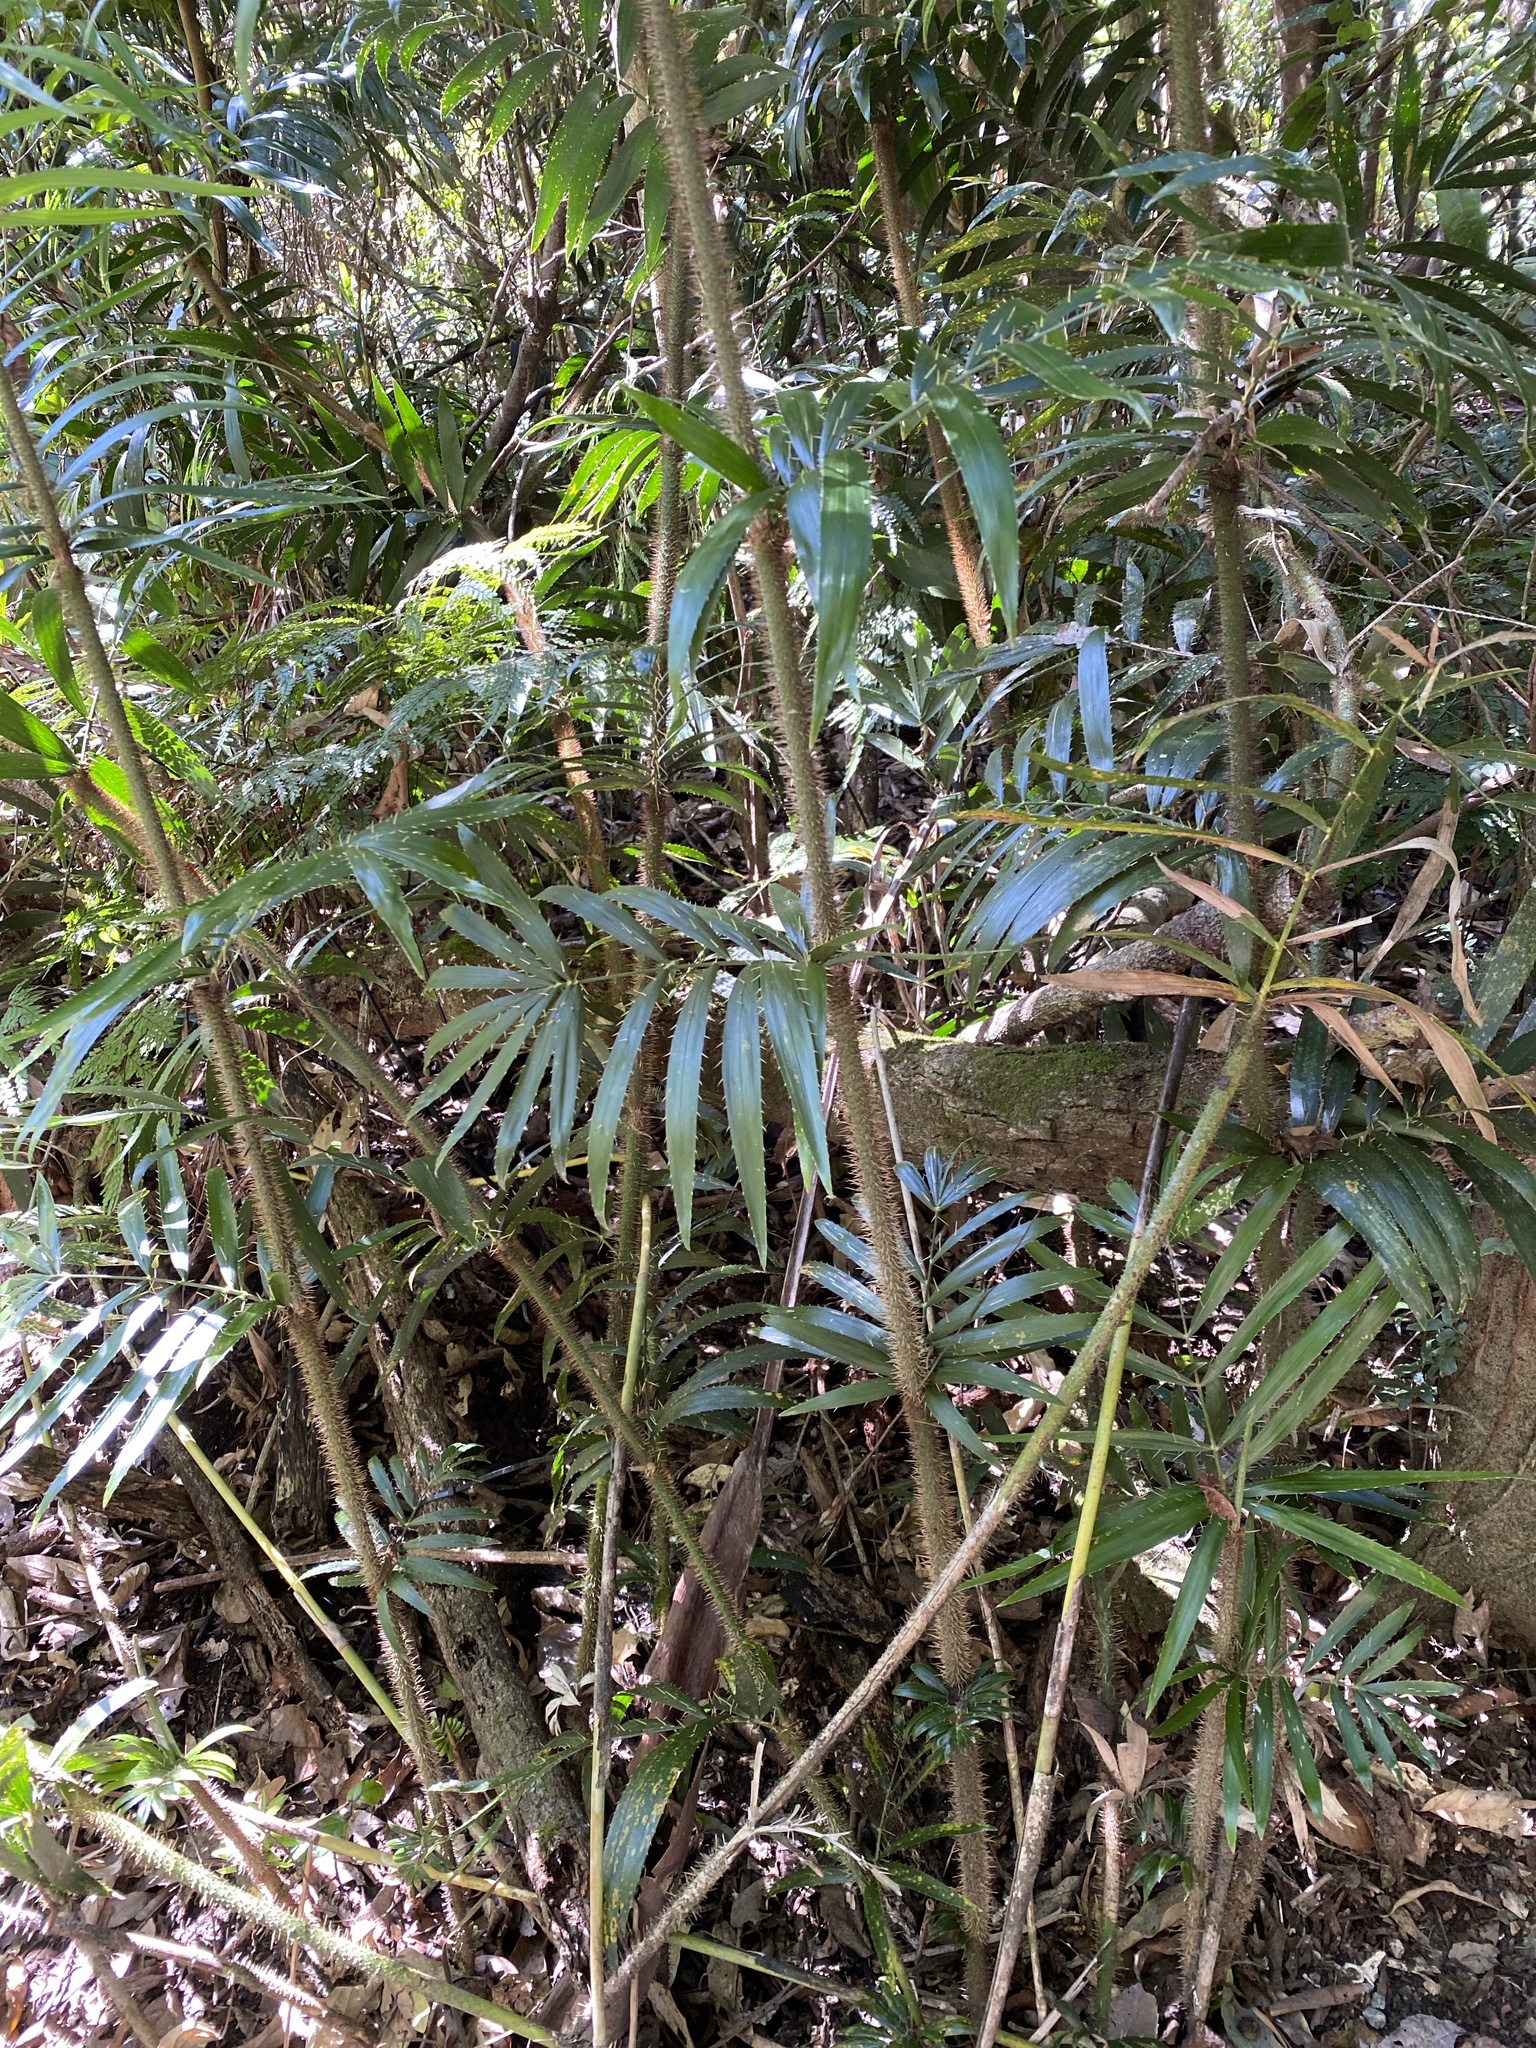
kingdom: Plantae
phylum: Tracheophyta
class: Liliopsida
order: Arecales
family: Arecaceae
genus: Calamus
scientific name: Calamus muelleri
